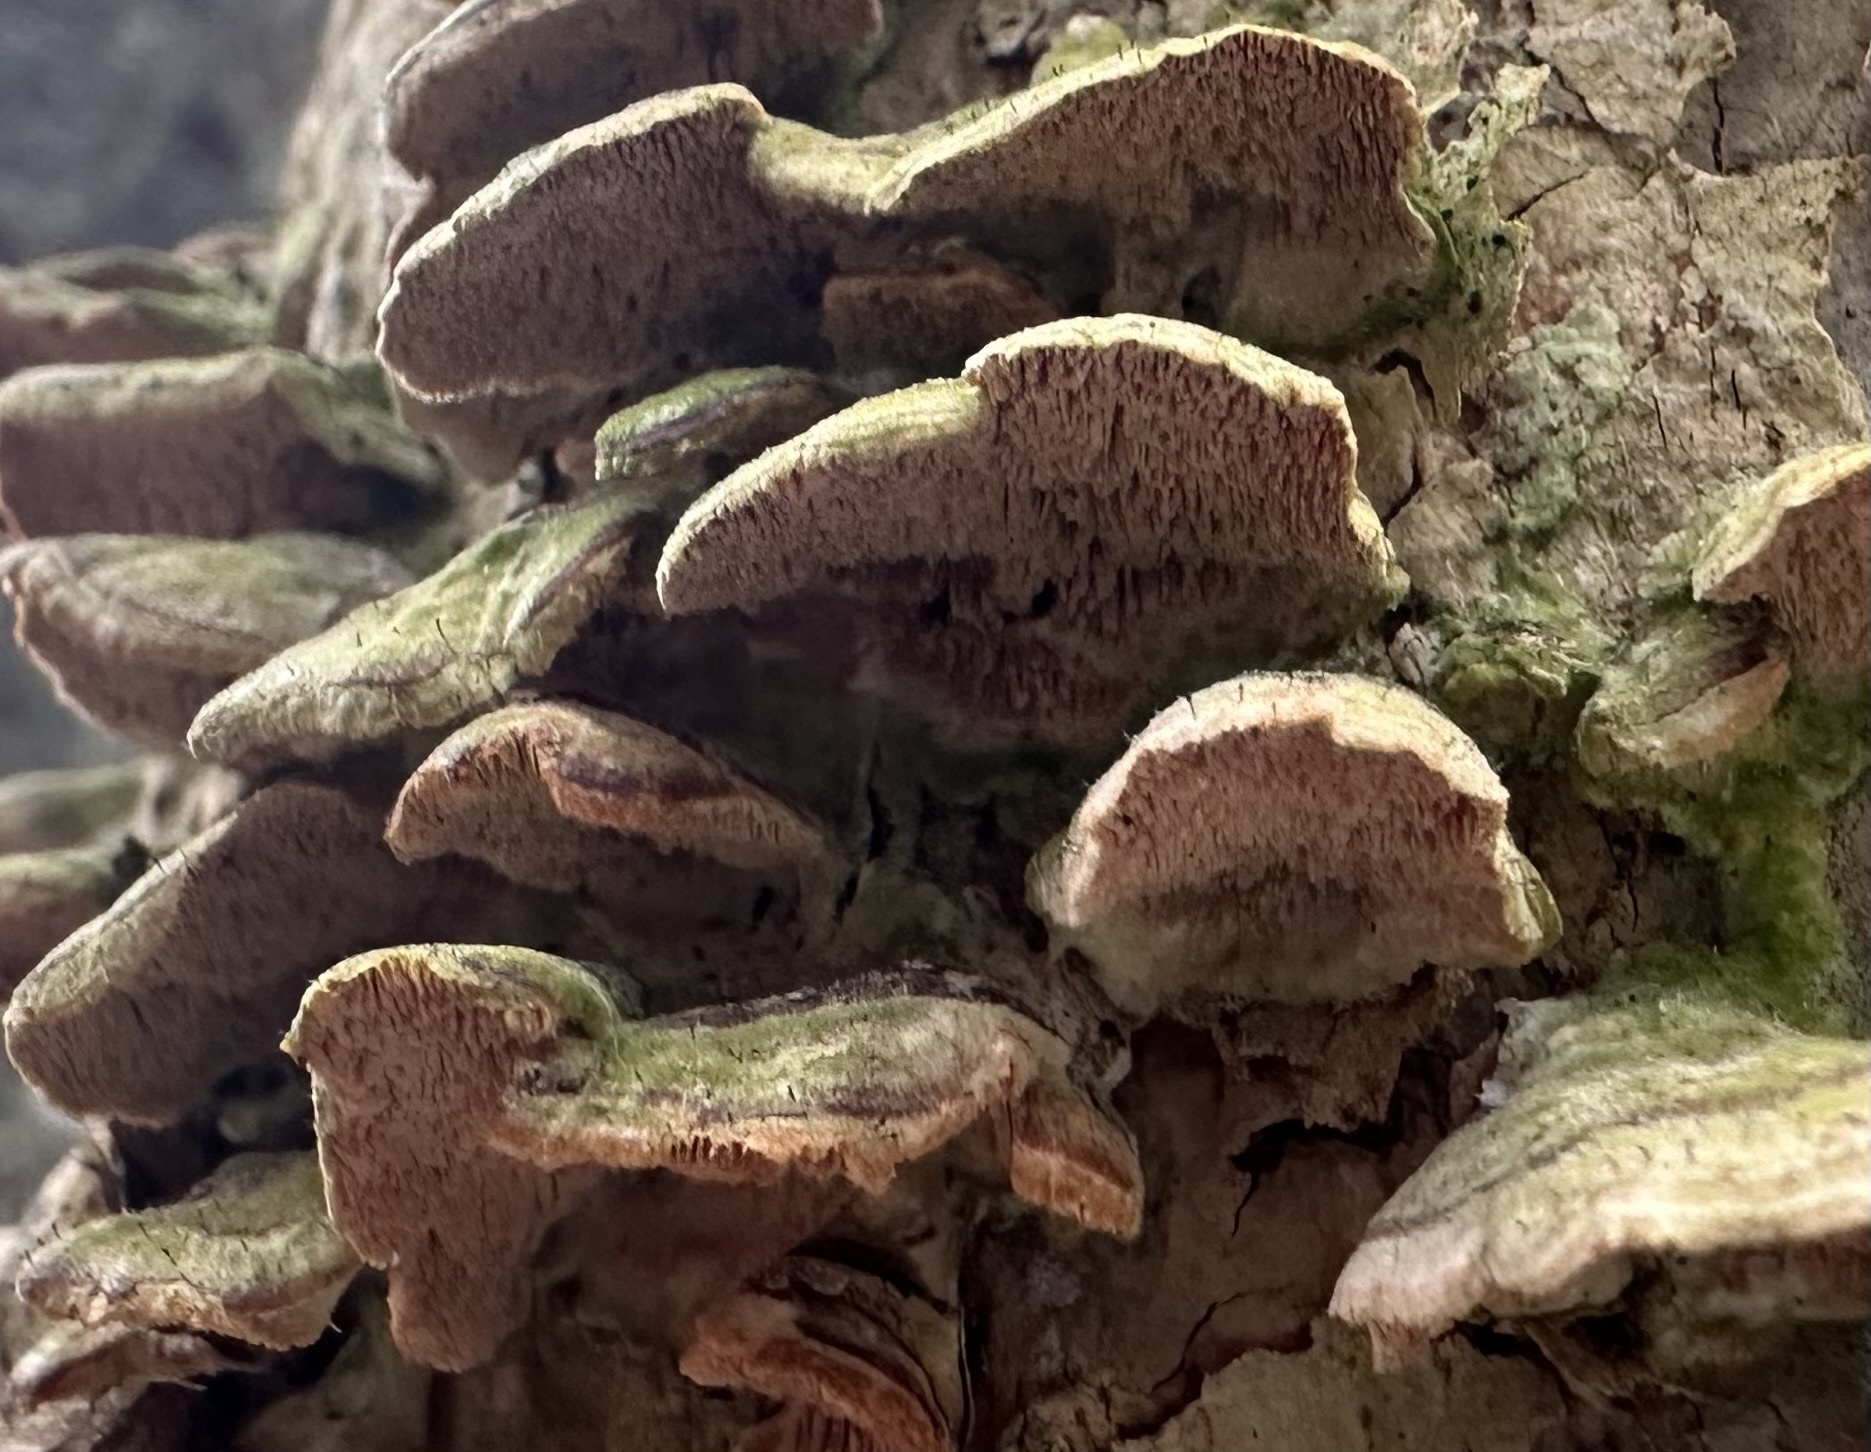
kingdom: Fungi
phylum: Ascomycota
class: Eurotiomycetes
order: Mycocaliciales
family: Mycocaliciaceae
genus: Phaeocalicium
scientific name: Phaeocalicium polyporaeum
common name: Fairy pins
